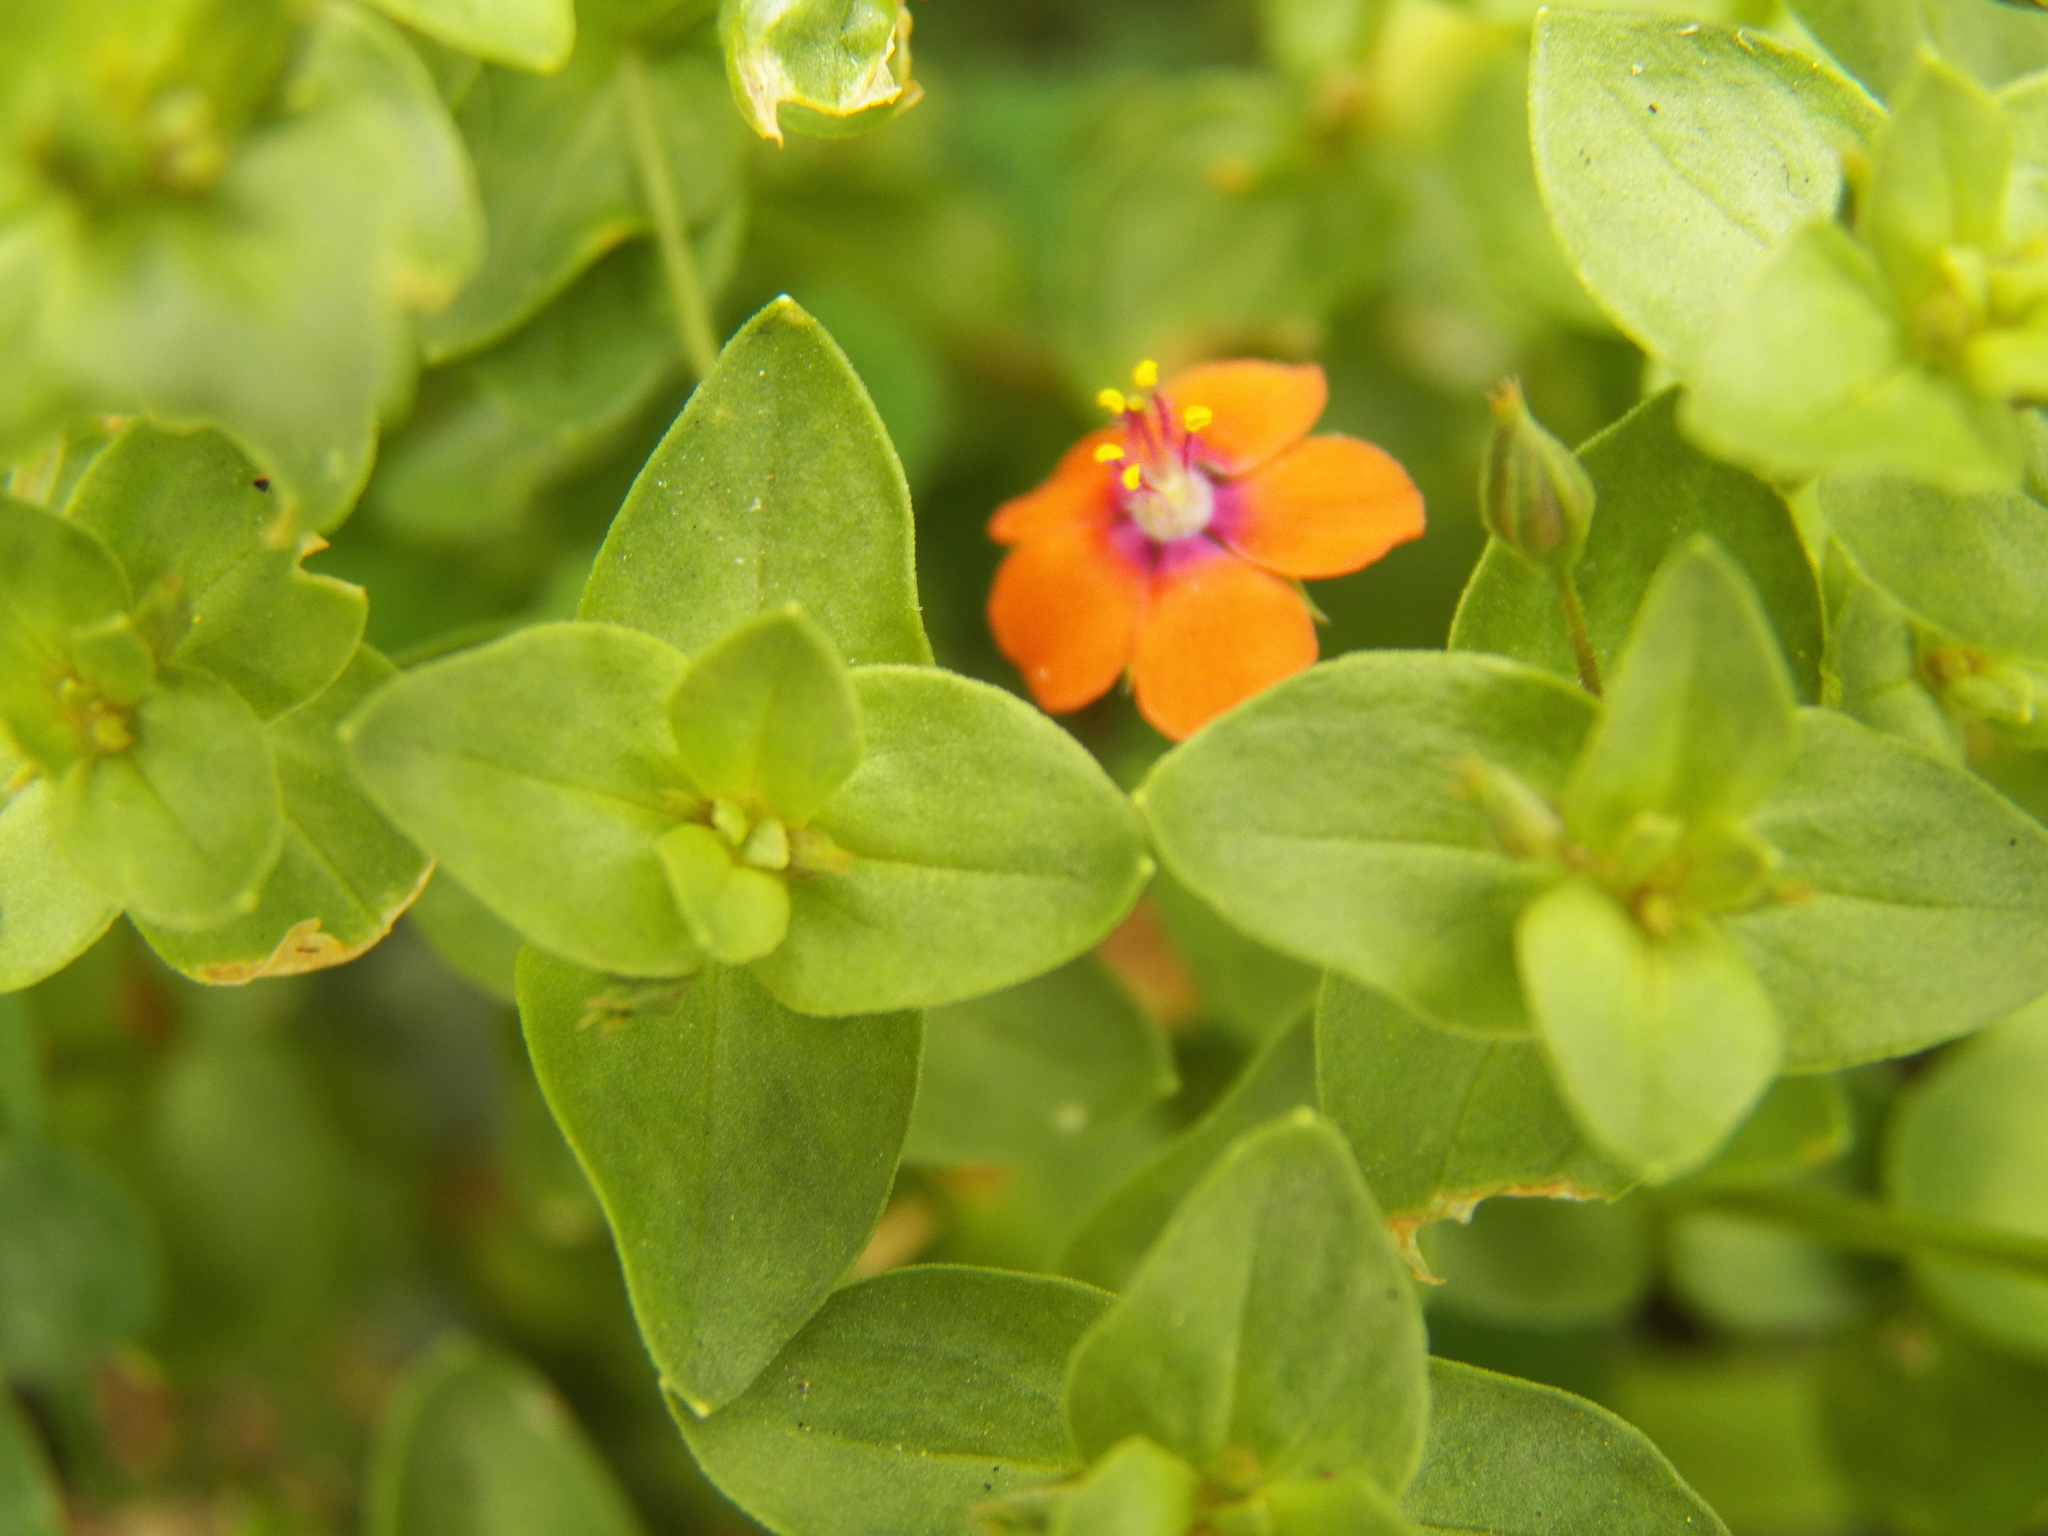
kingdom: Plantae
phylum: Tracheophyta
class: Magnoliopsida
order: Ericales
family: Primulaceae
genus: Lysimachia
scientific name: Lysimachia arvensis
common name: Scarlet pimpernel
